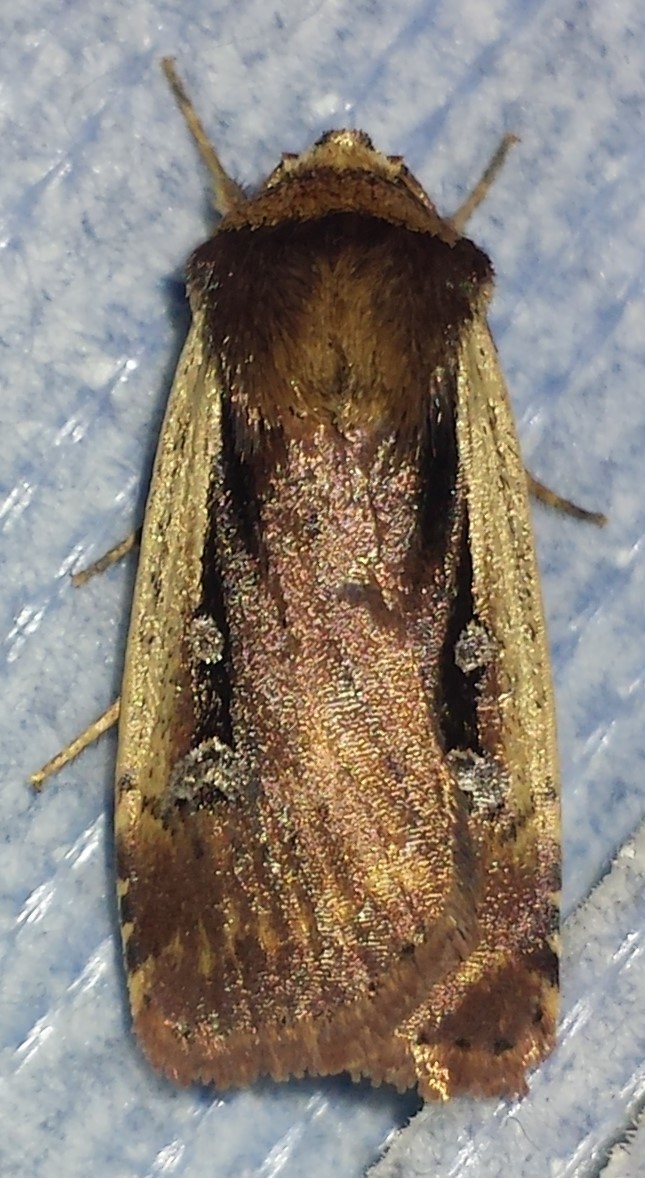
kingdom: Animalia
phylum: Arthropoda
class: Insecta
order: Lepidoptera
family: Noctuidae
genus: Ochropleura
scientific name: Ochropleura implecta
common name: Flame-shouldered dart
